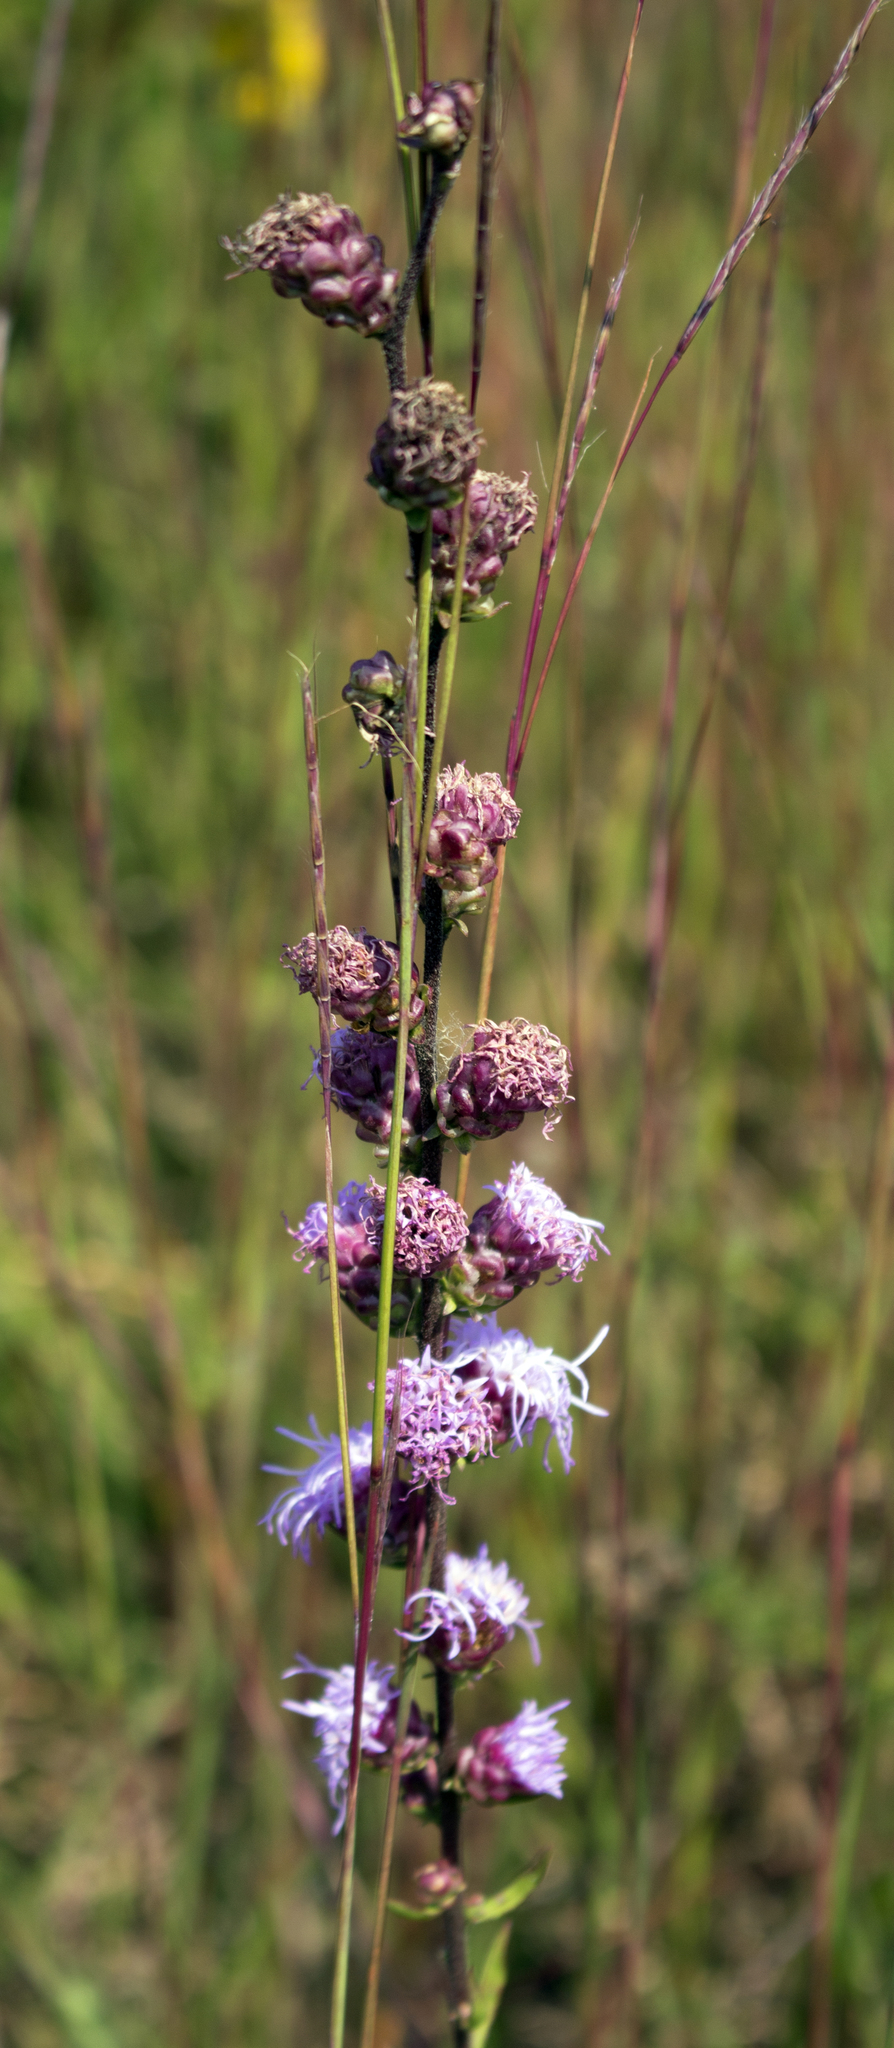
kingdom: Plantae
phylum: Tracheophyta
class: Magnoliopsida
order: Asterales
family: Asteraceae
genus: Liatris
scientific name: Liatris aspera
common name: Lacerate blazing-star
